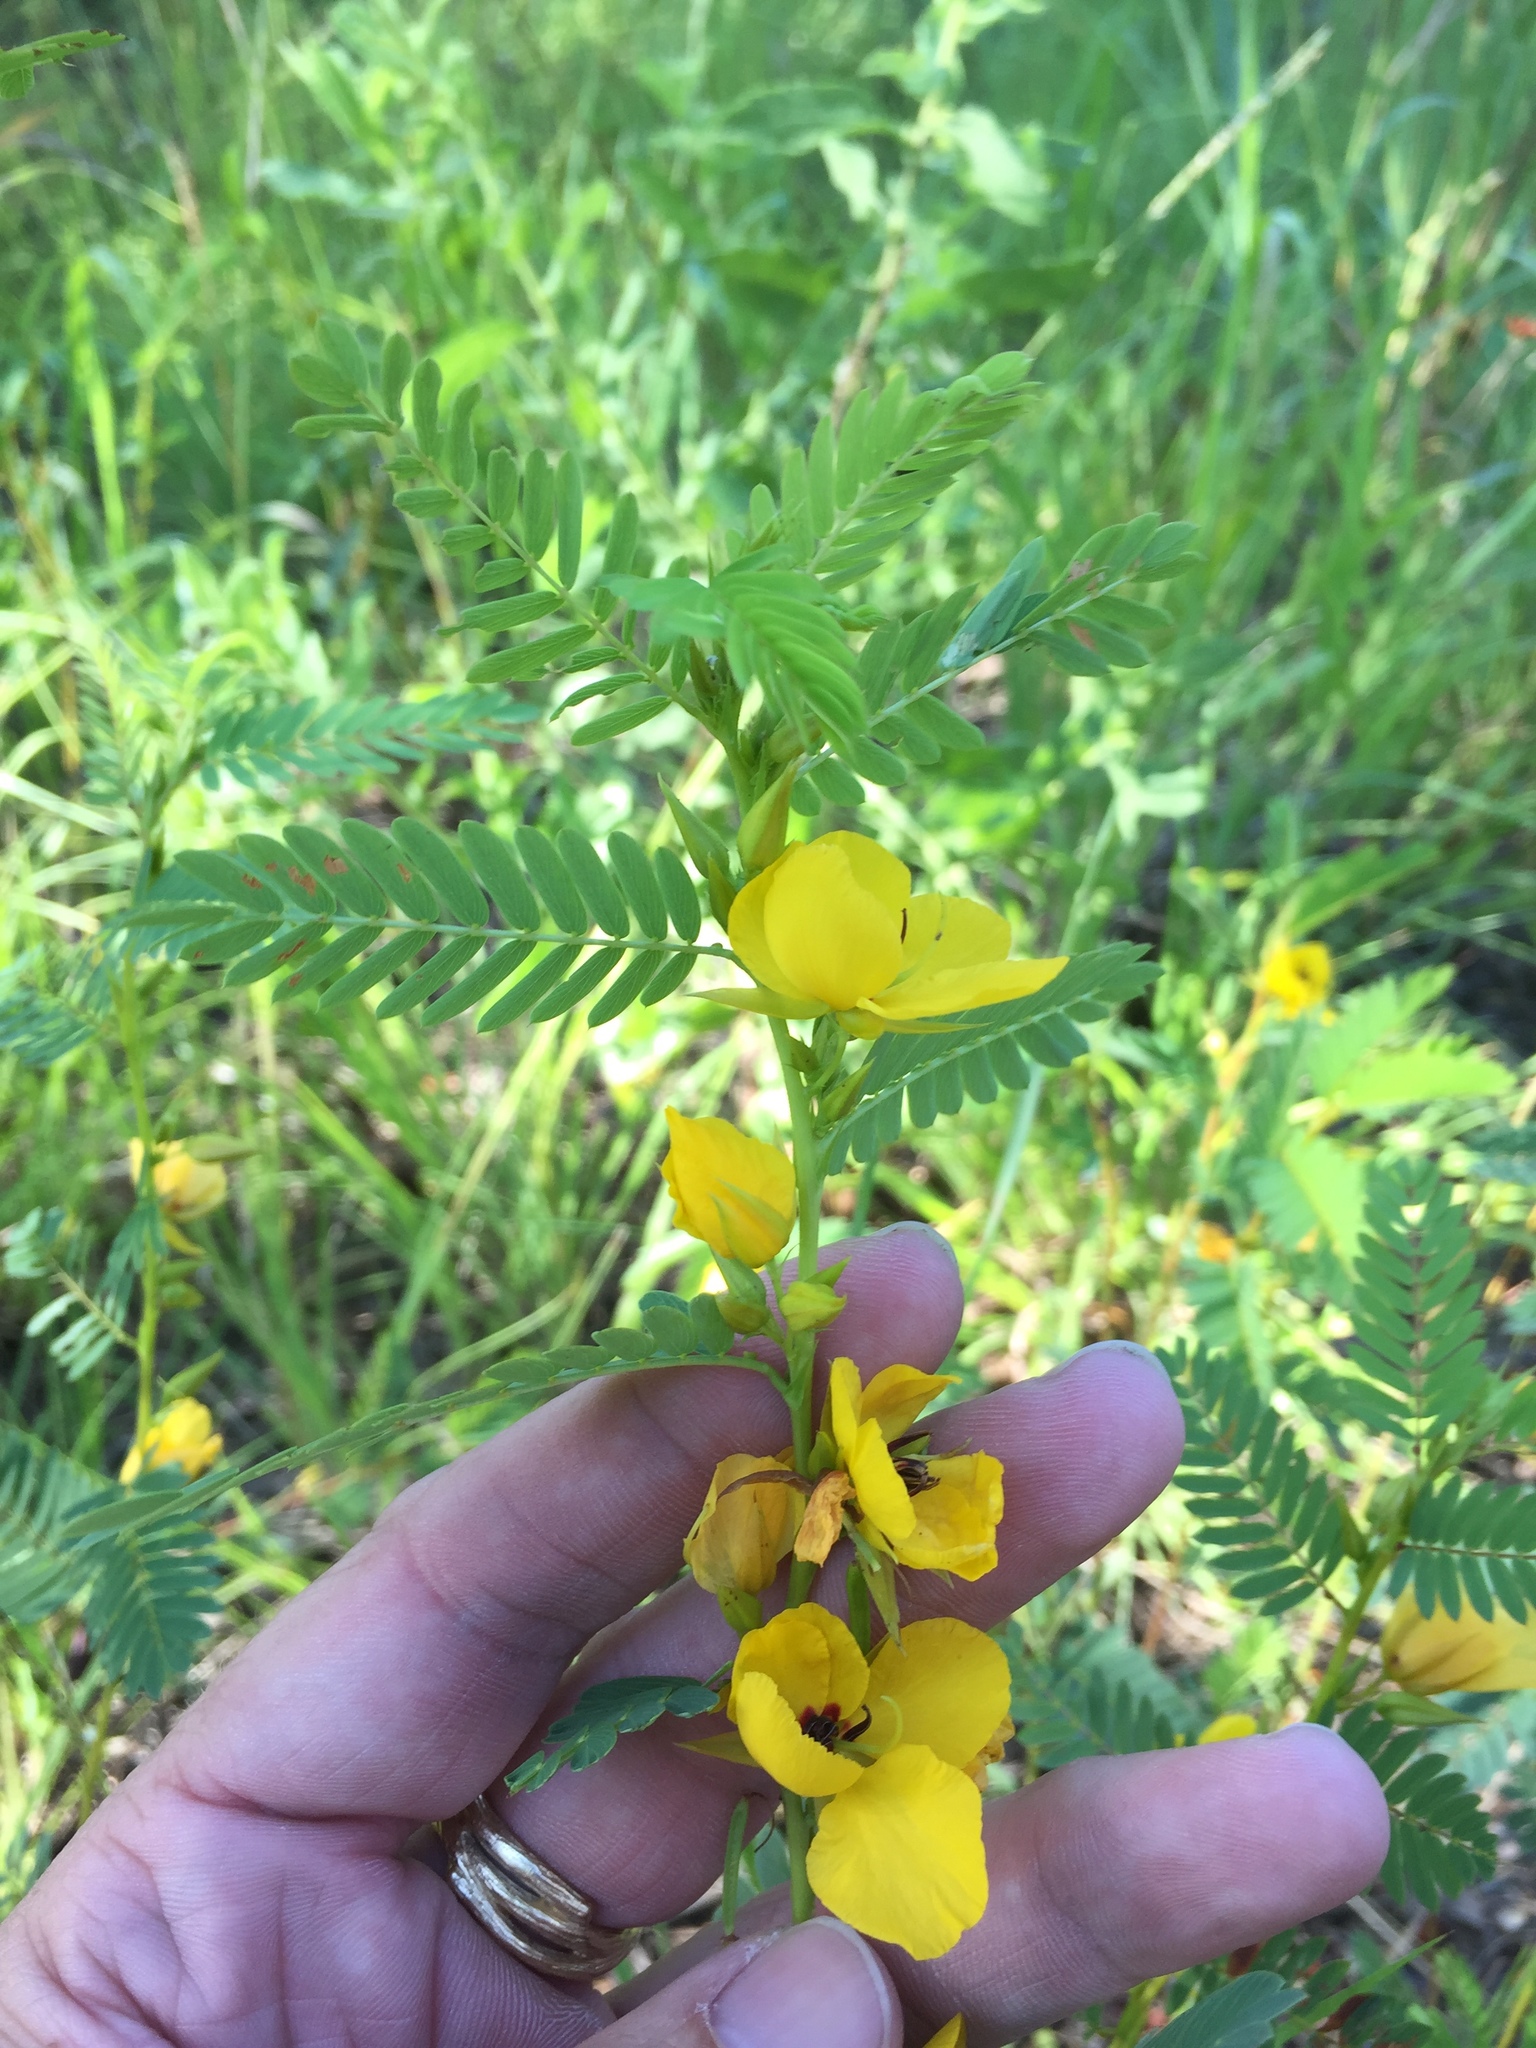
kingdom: Plantae
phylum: Tracheophyta
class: Magnoliopsida
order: Fabales
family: Fabaceae
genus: Chamaecrista
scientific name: Chamaecrista fasciculata
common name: Golden cassia
